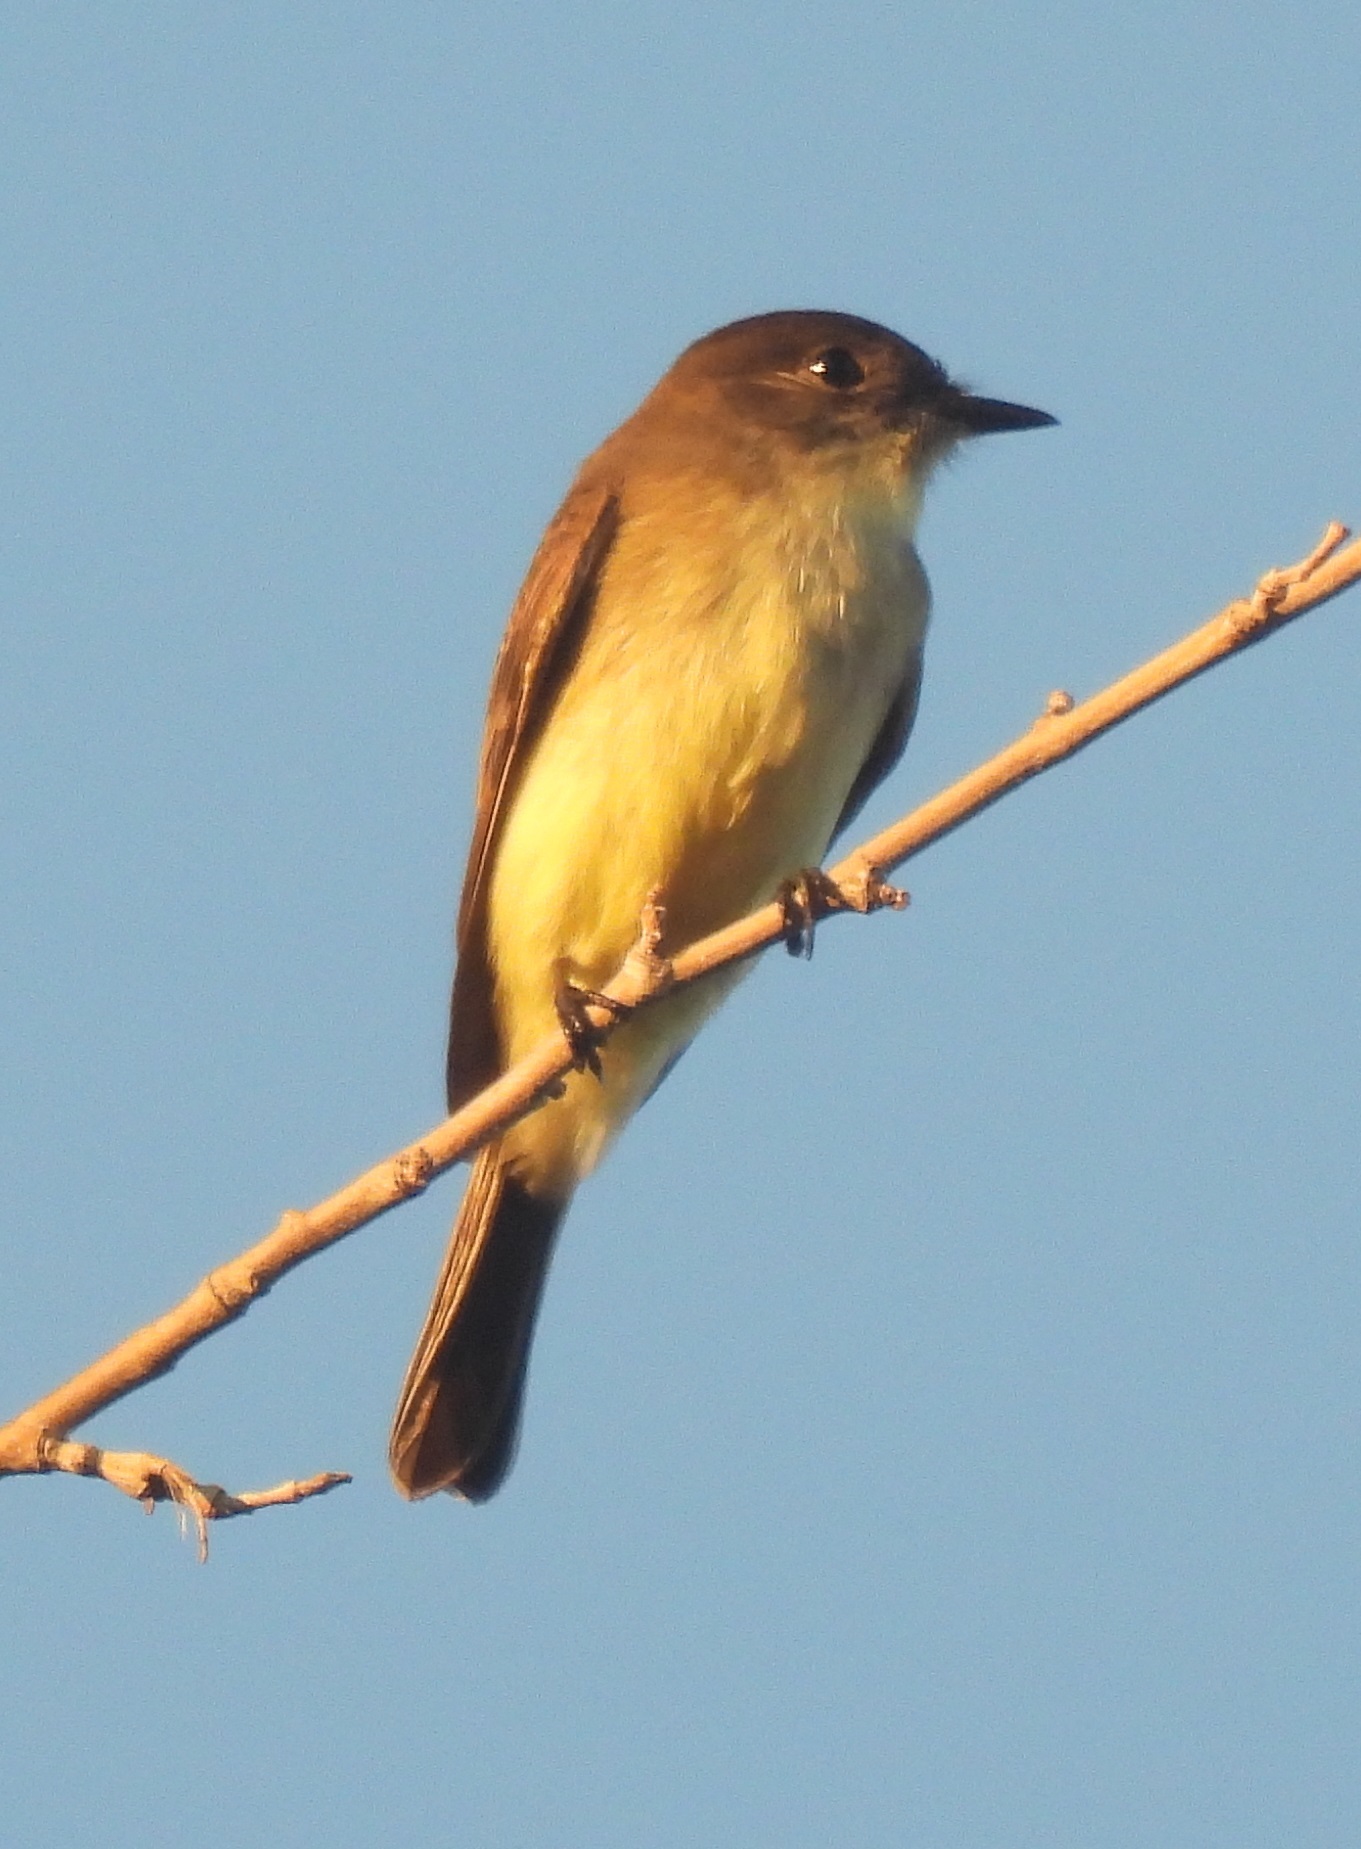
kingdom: Animalia
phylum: Chordata
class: Aves
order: Passeriformes
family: Tyrannidae
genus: Sayornis
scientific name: Sayornis phoebe
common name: Eastern phoebe
